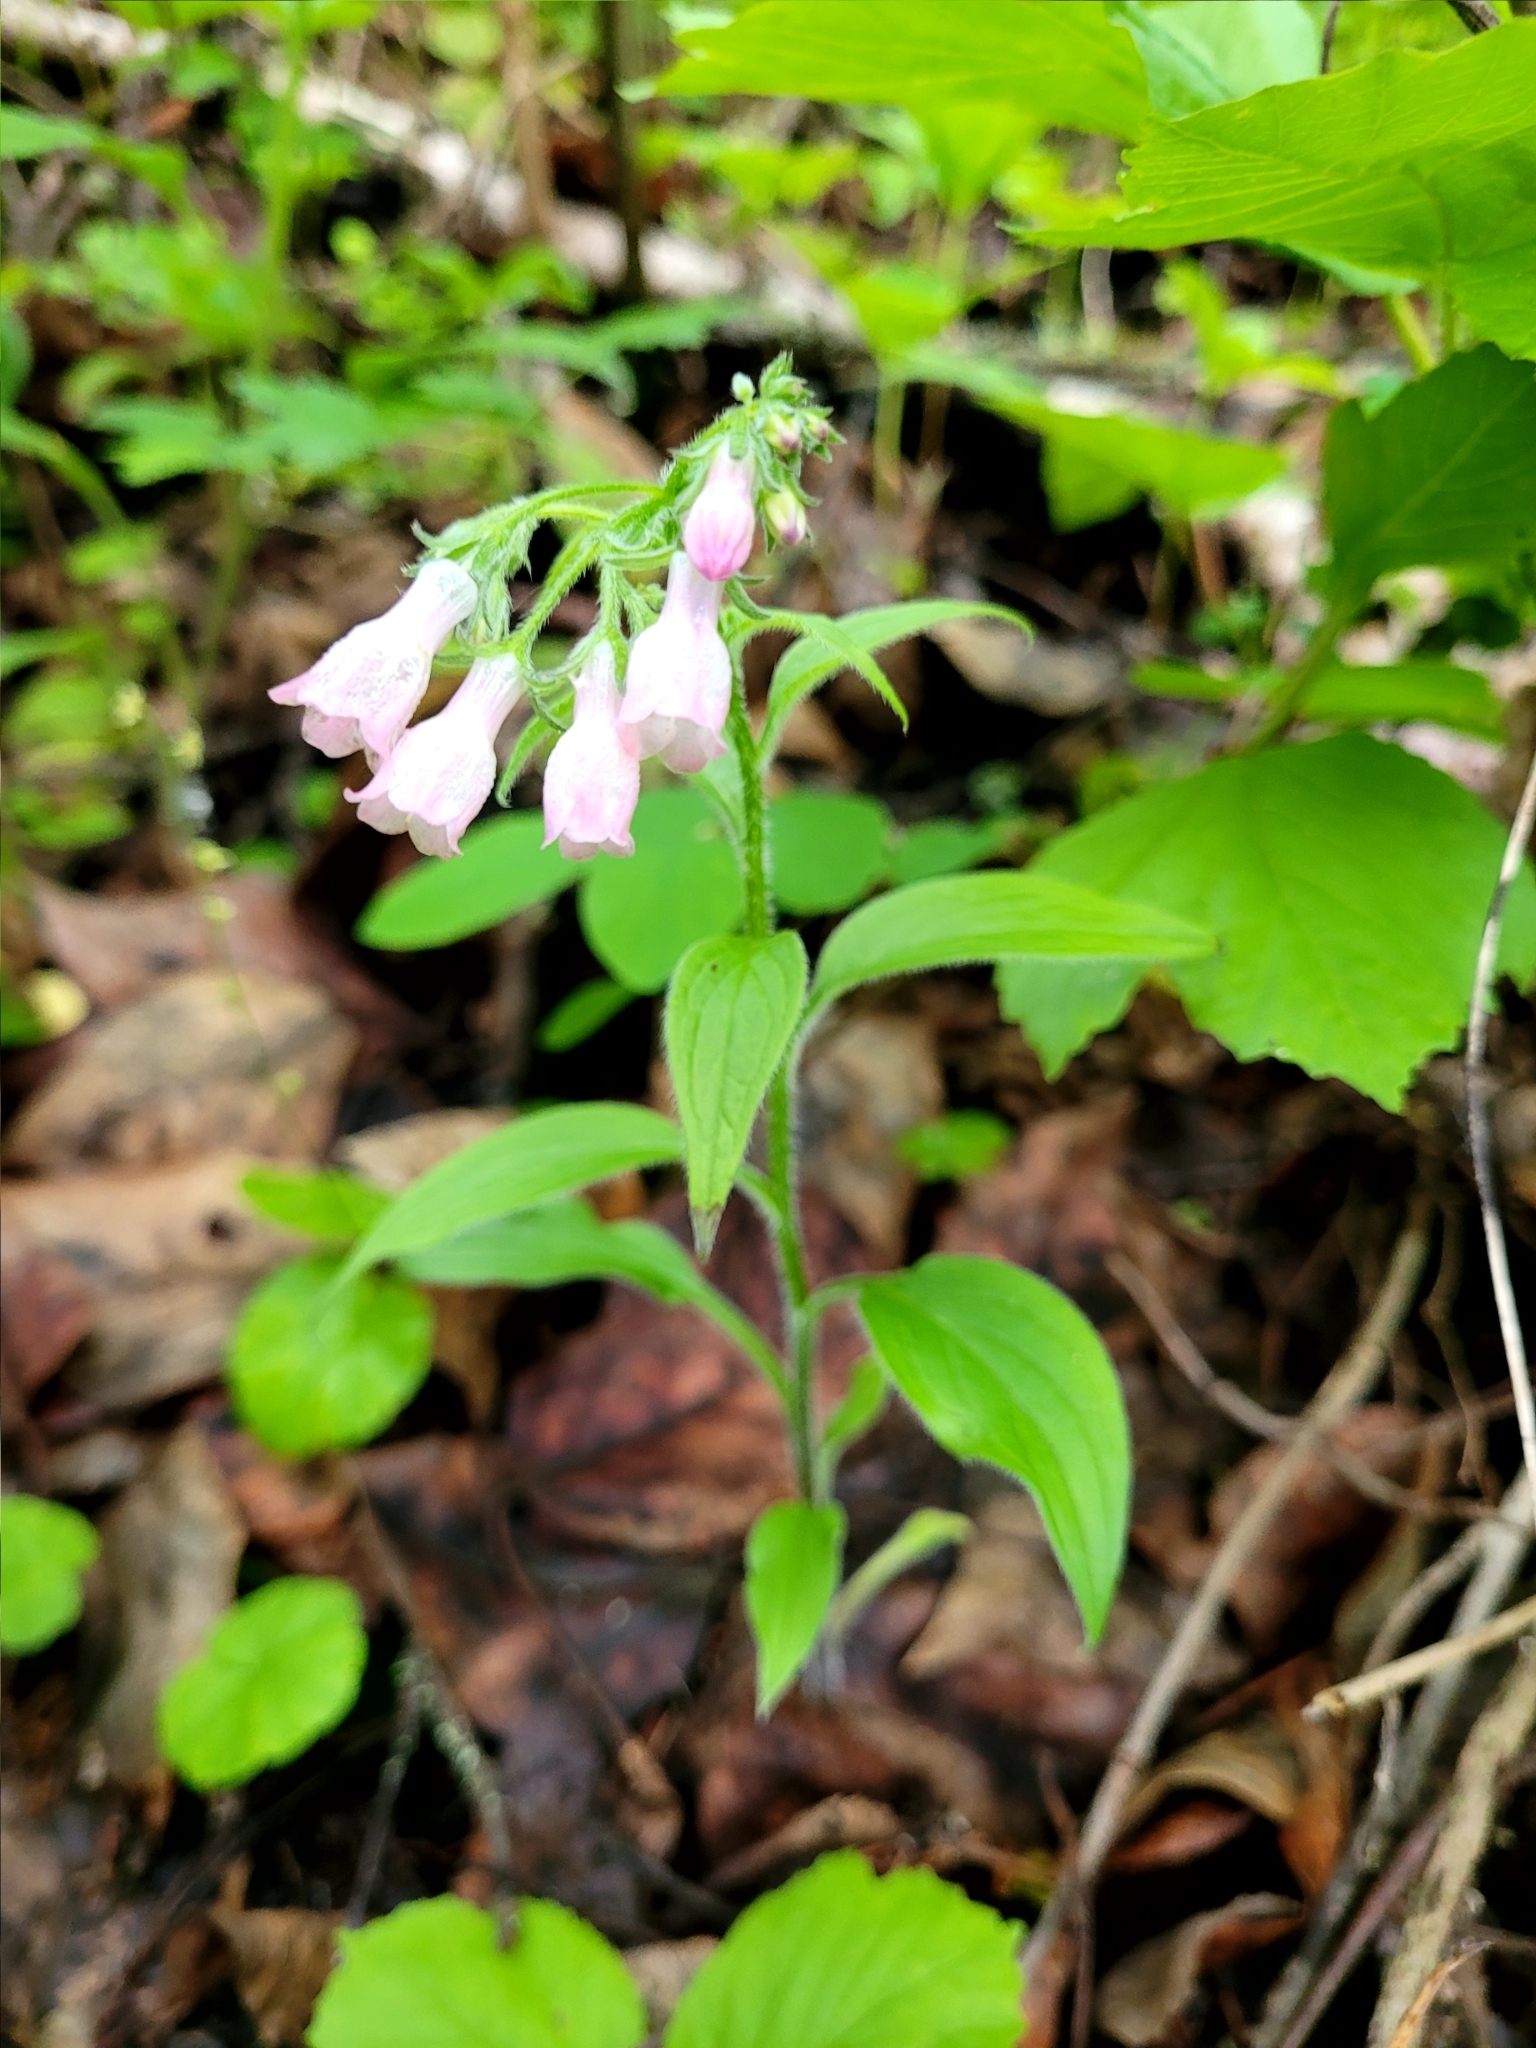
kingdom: Plantae
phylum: Tracheophyta
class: Magnoliopsida
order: Boraginales
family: Boraginaceae
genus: Mertensia
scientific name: Mertensia paniculata
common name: Panicled bluebells
